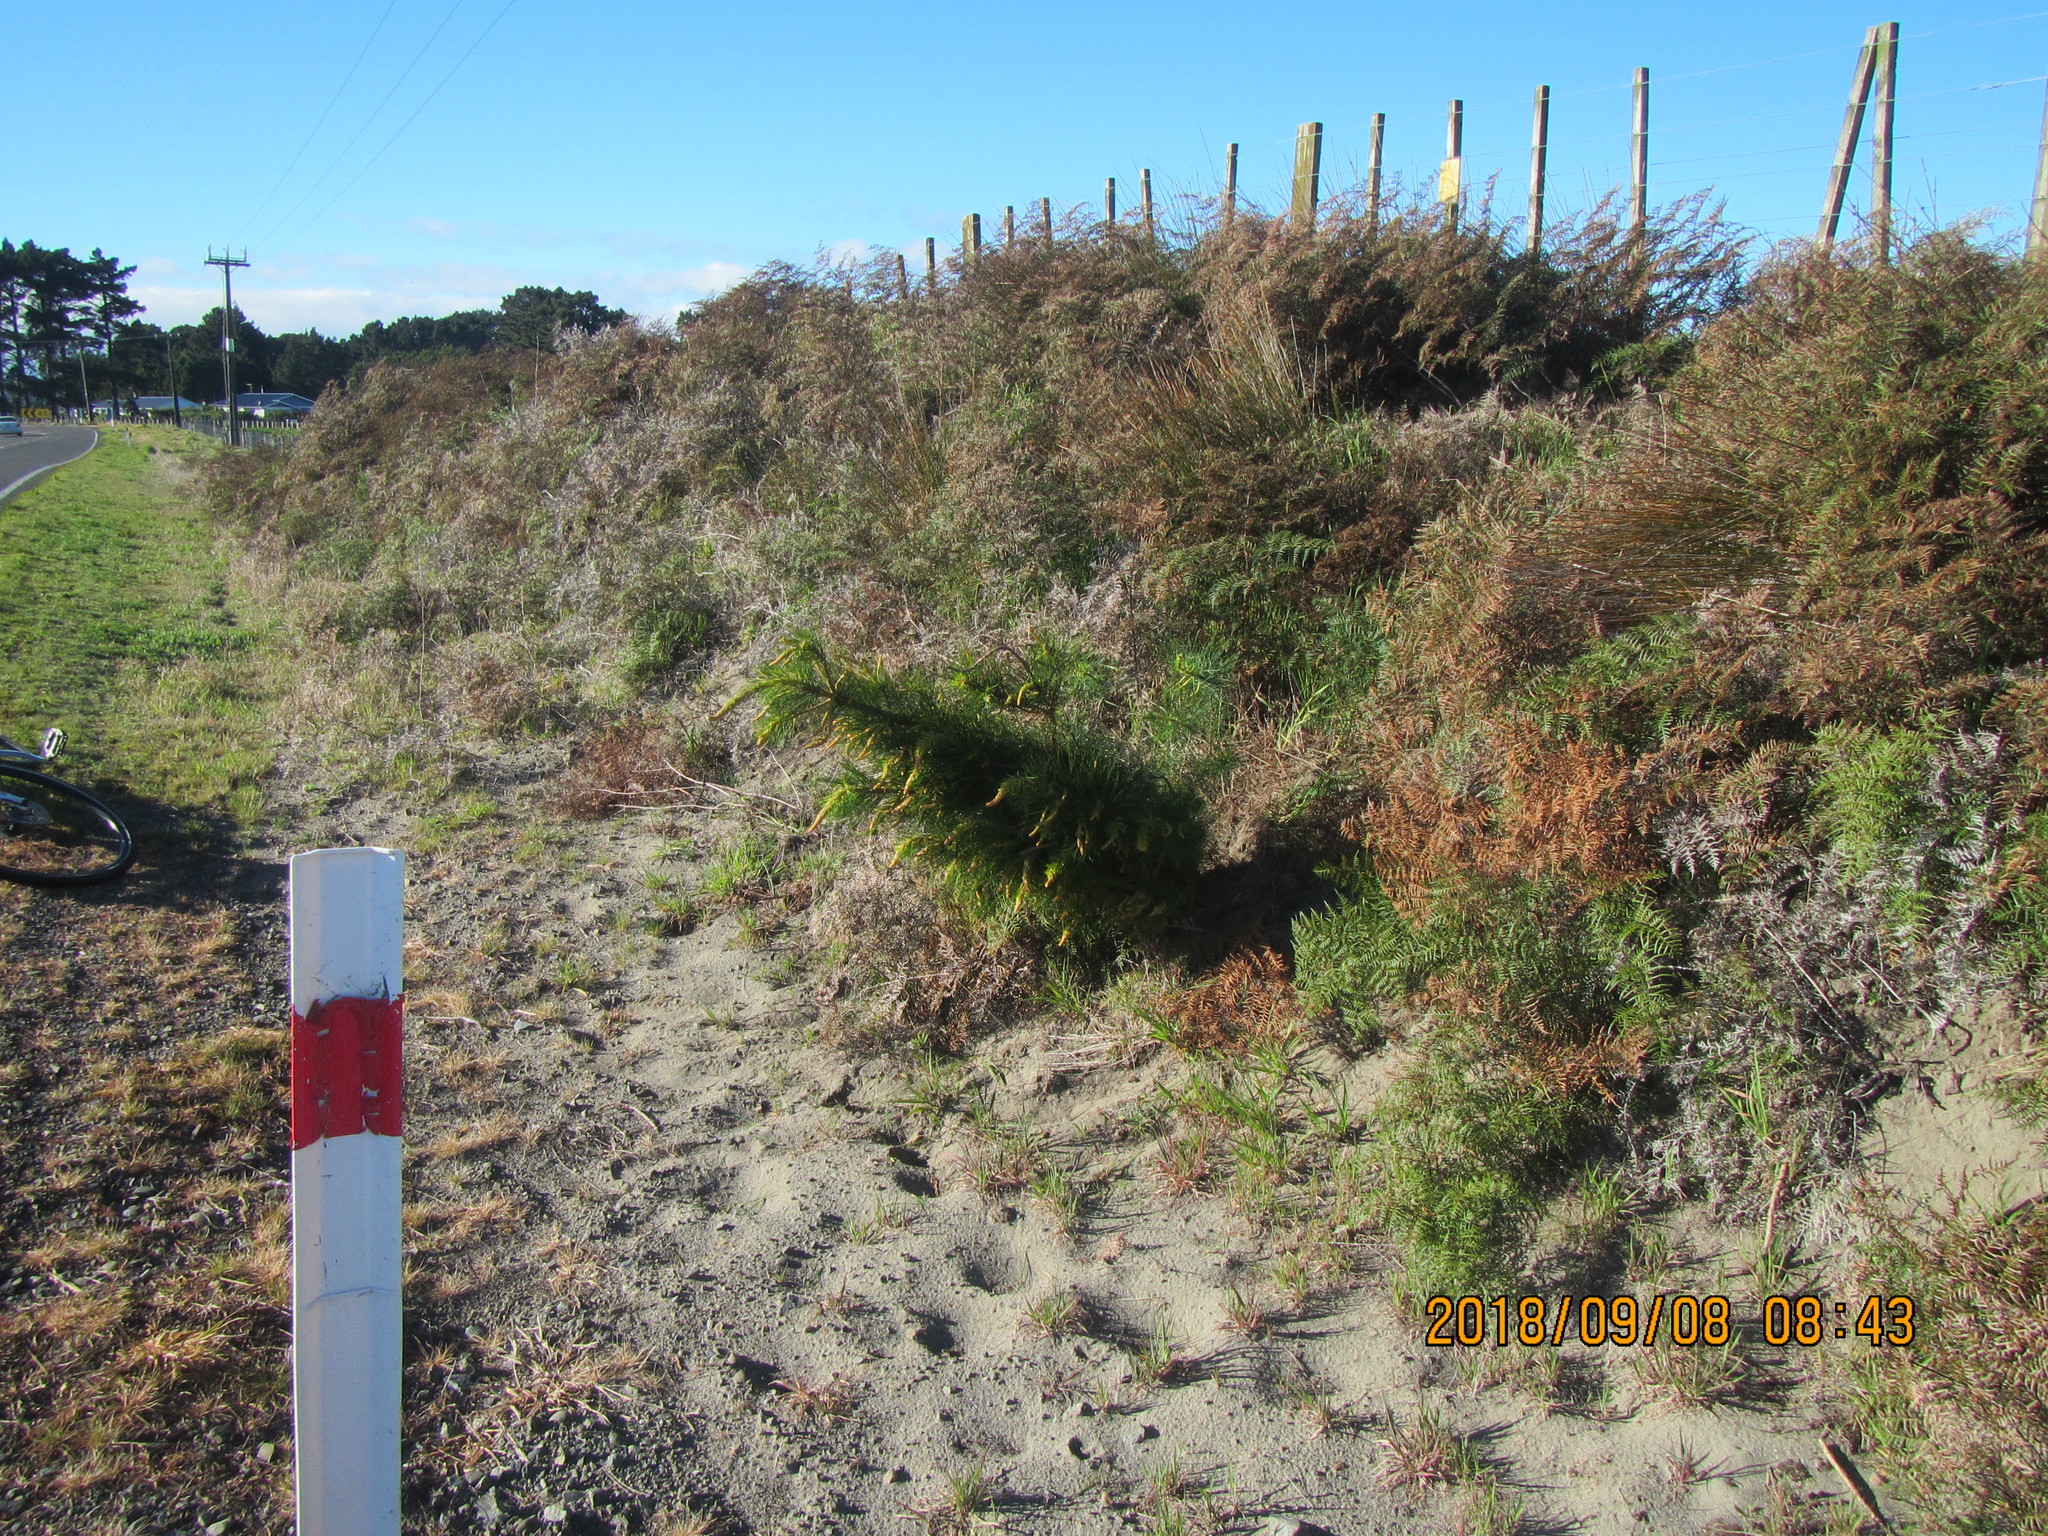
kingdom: Plantae
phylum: Tracheophyta
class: Pinopsida
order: Pinales
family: Pinaceae
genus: Pinus
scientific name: Pinus radiata
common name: Monterey pine
